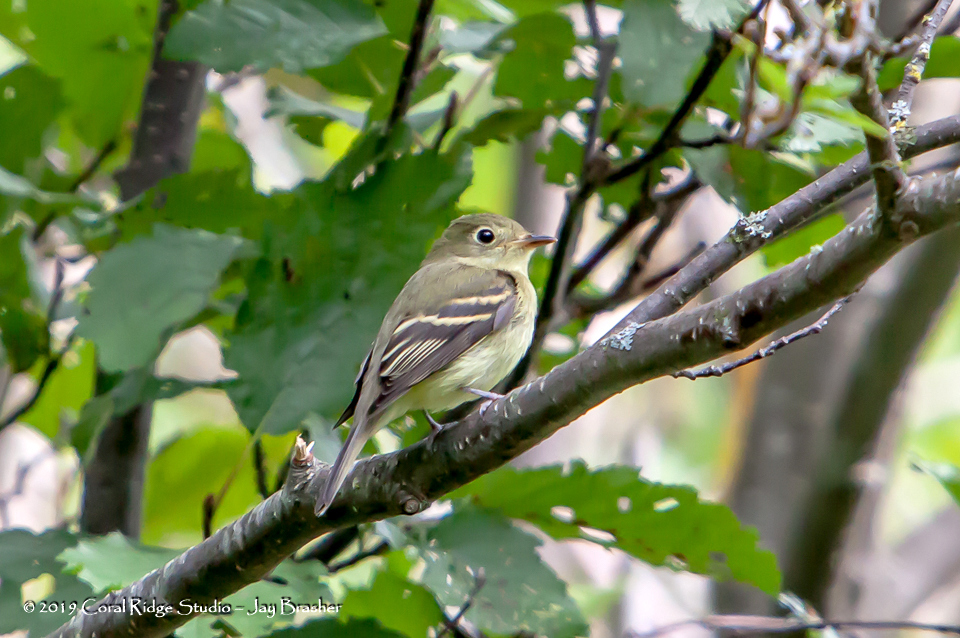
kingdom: Animalia
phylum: Chordata
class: Aves
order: Passeriformes
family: Tyrannidae
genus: Empidonax
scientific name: Empidonax minimus
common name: Least flycatcher
